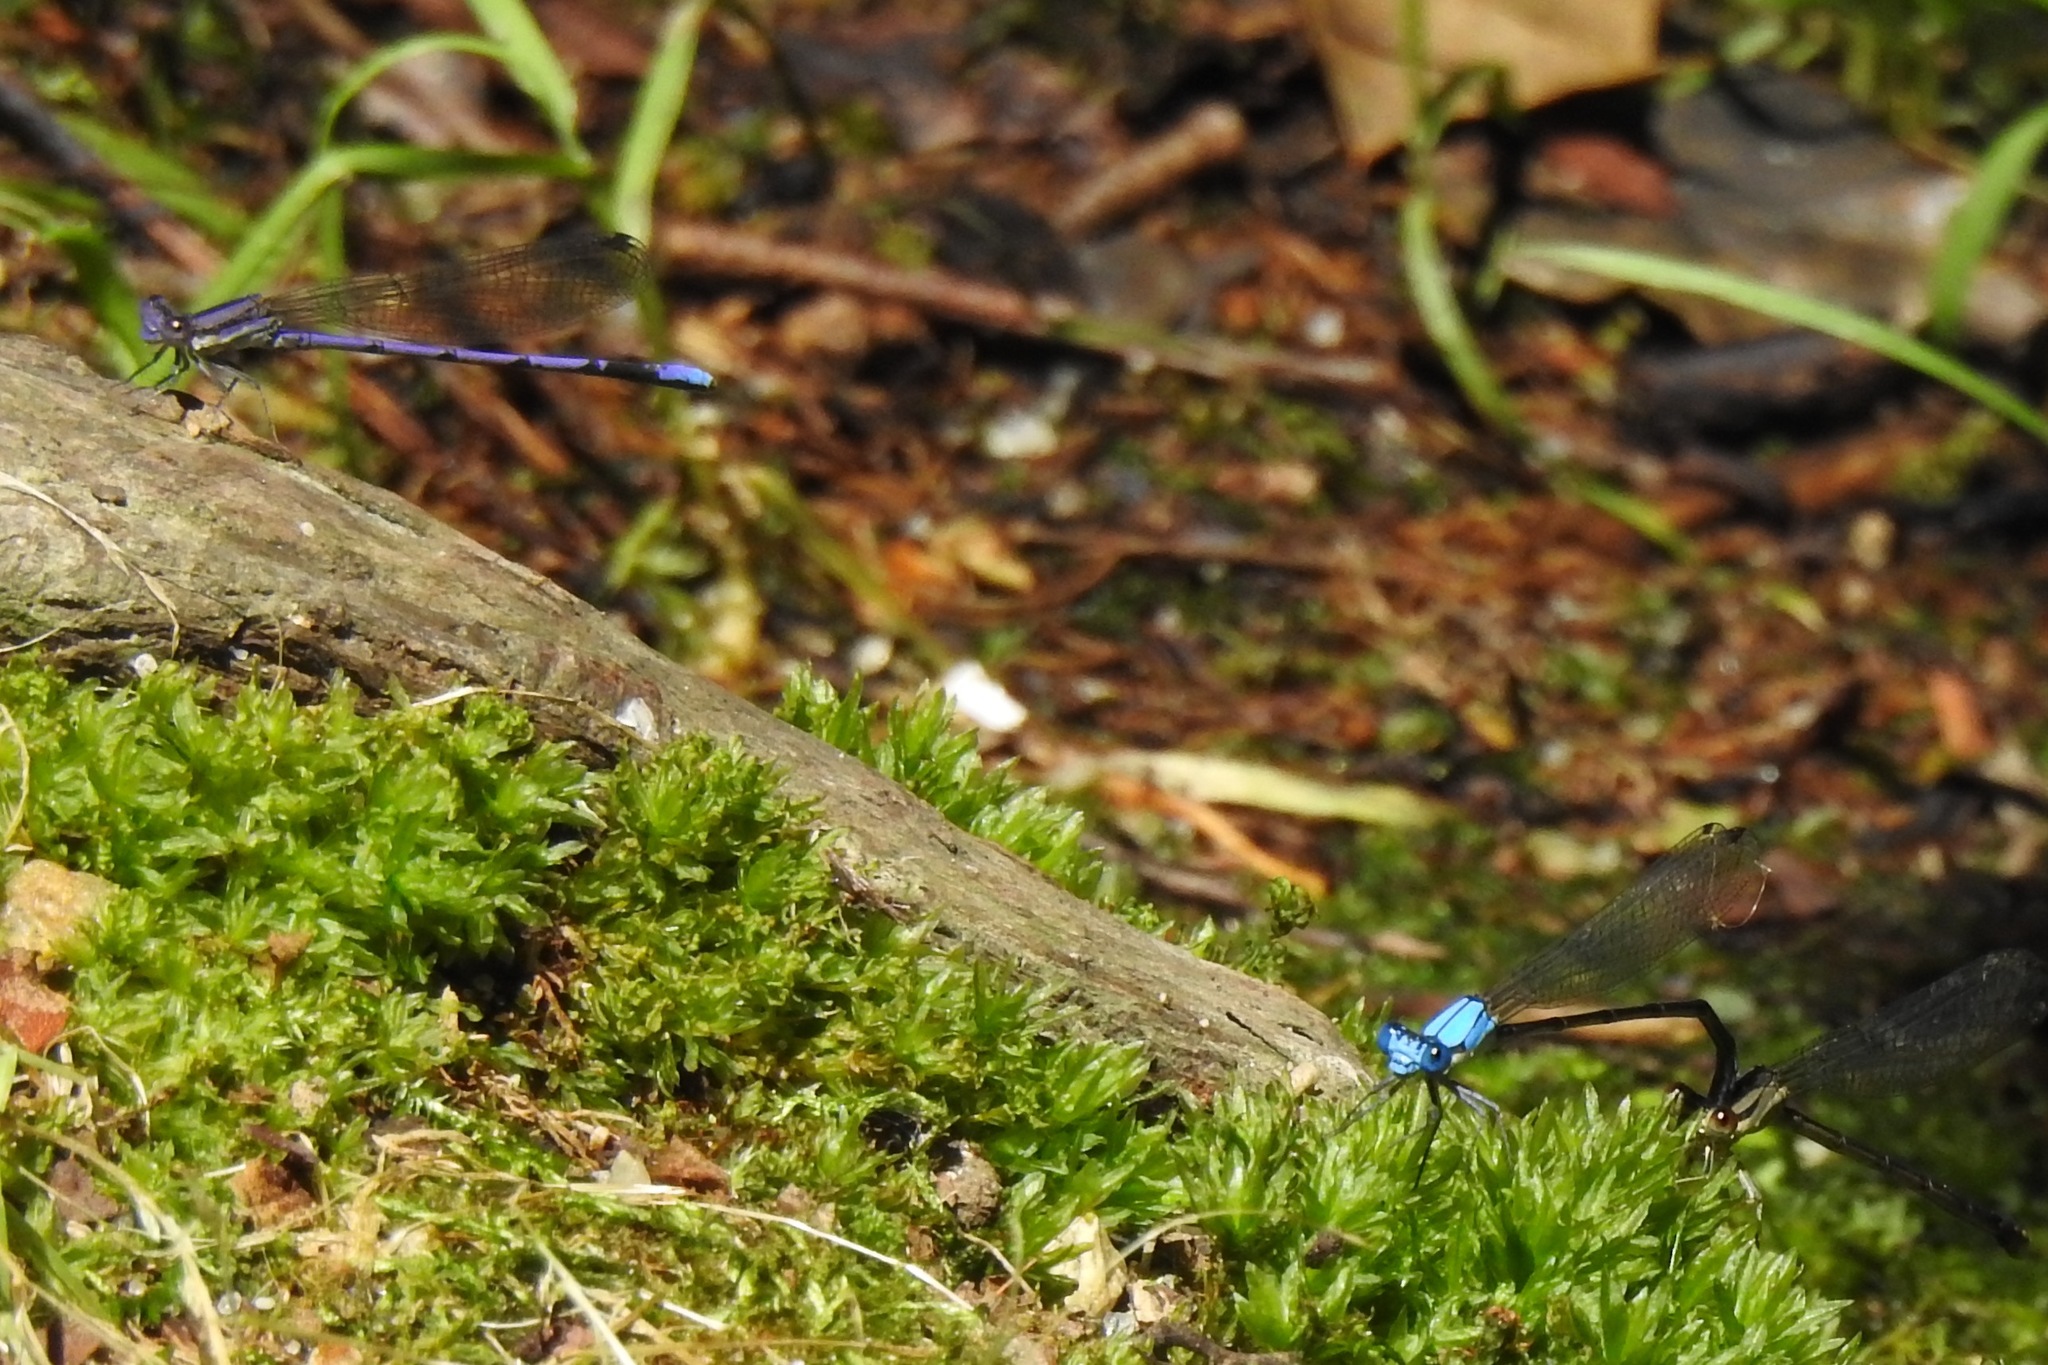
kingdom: Animalia
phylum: Arthropoda
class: Insecta
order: Odonata
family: Coenagrionidae
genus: Argia
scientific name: Argia fumipennis
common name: Variable dancer
